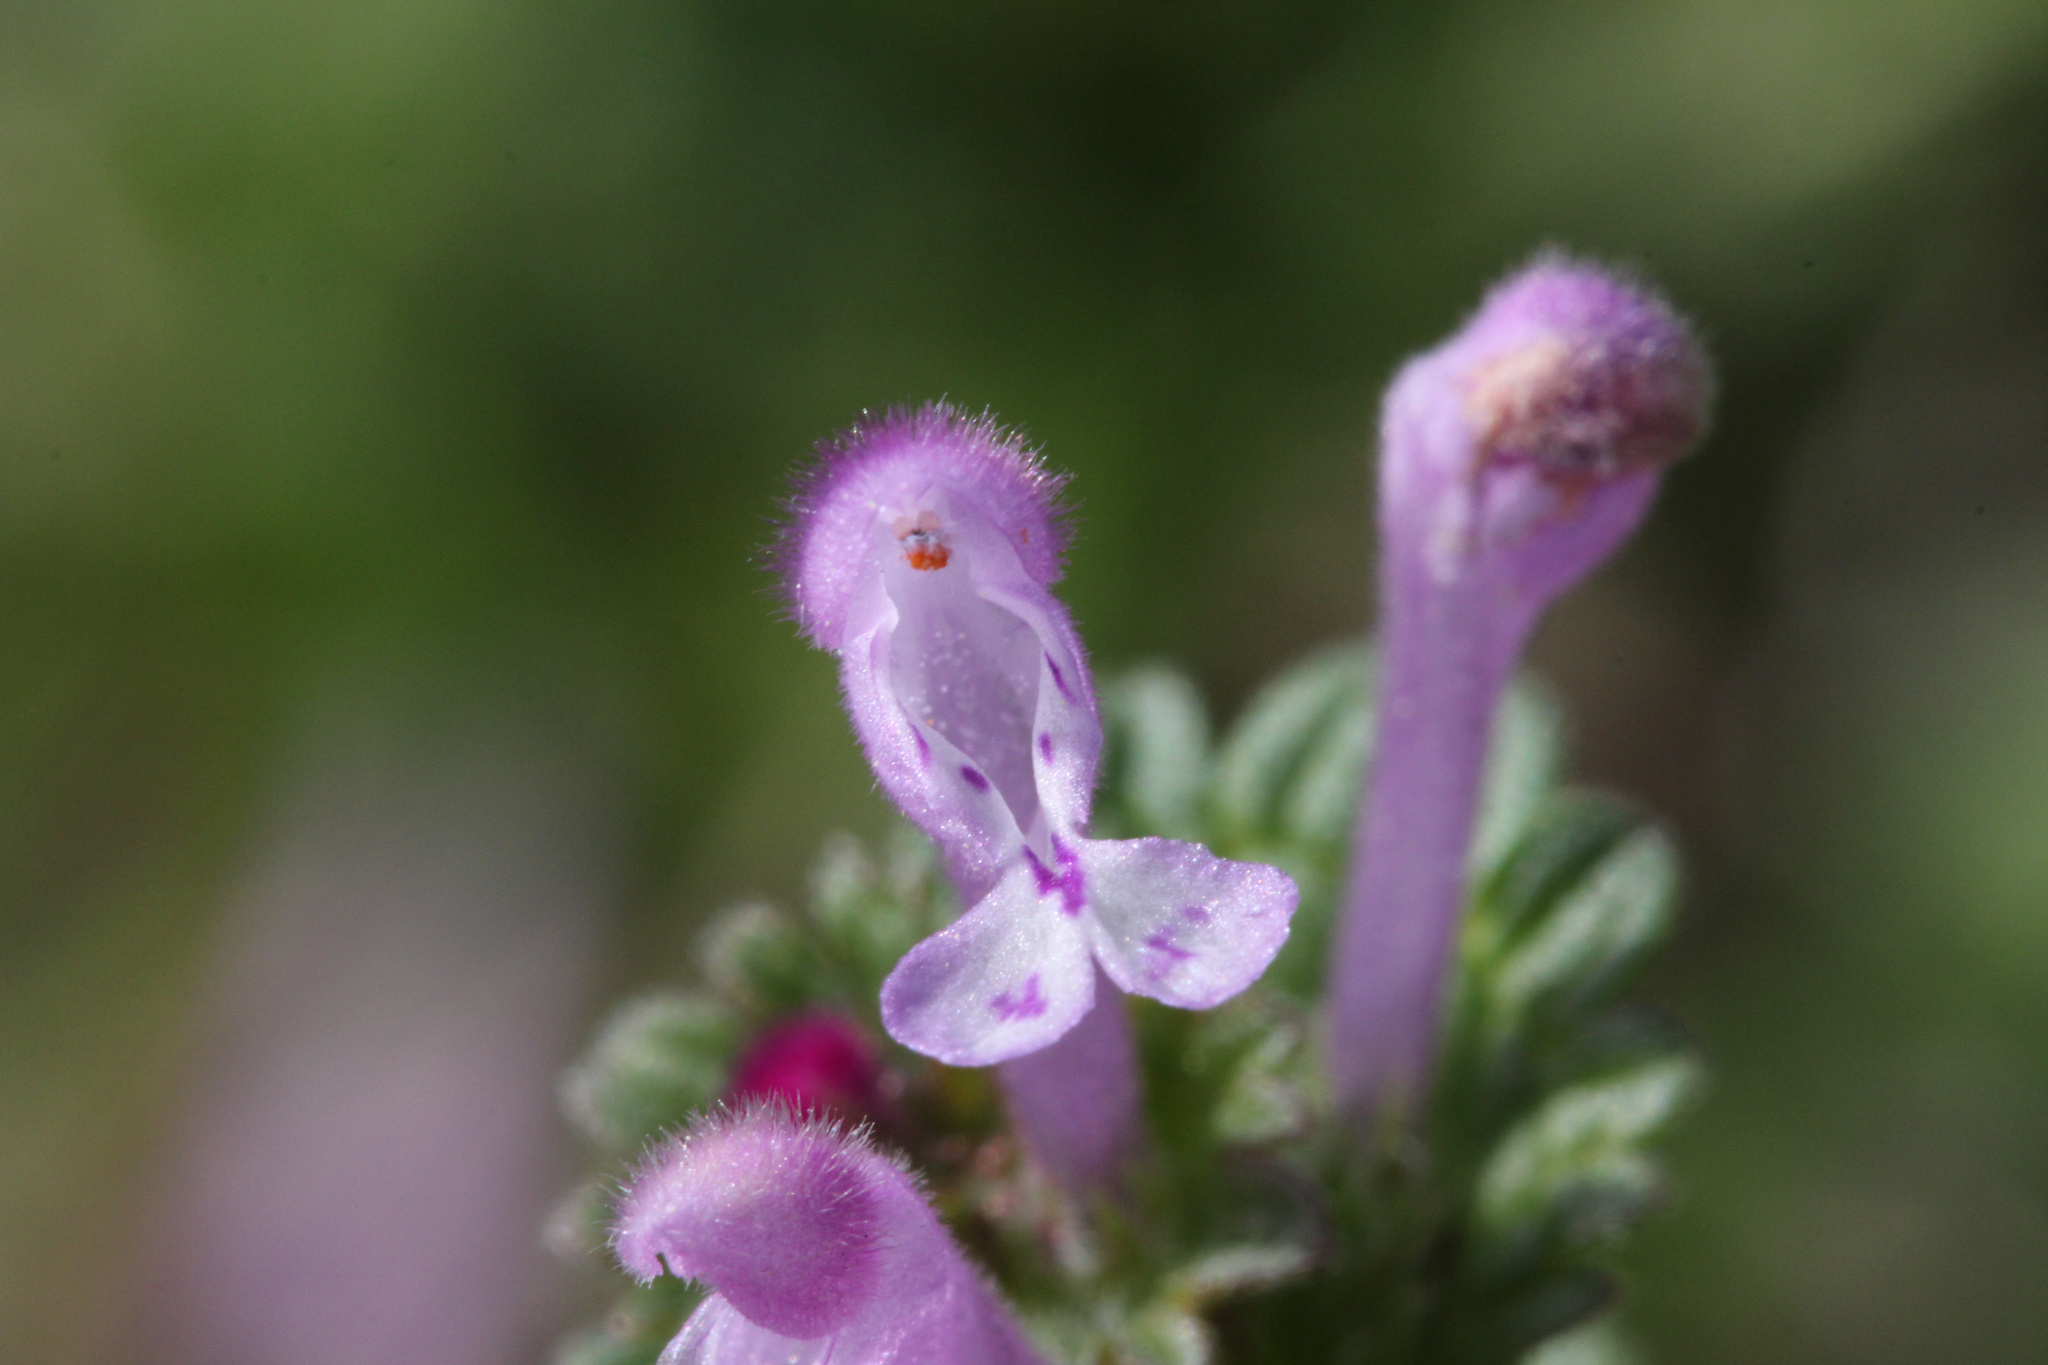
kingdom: Plantae
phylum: Tracheophyta
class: Magnoliopsida
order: Lamiales
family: Lamiaceae
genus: Lamium
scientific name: Lamium amplexicaule
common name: Henbit dead-nettle
